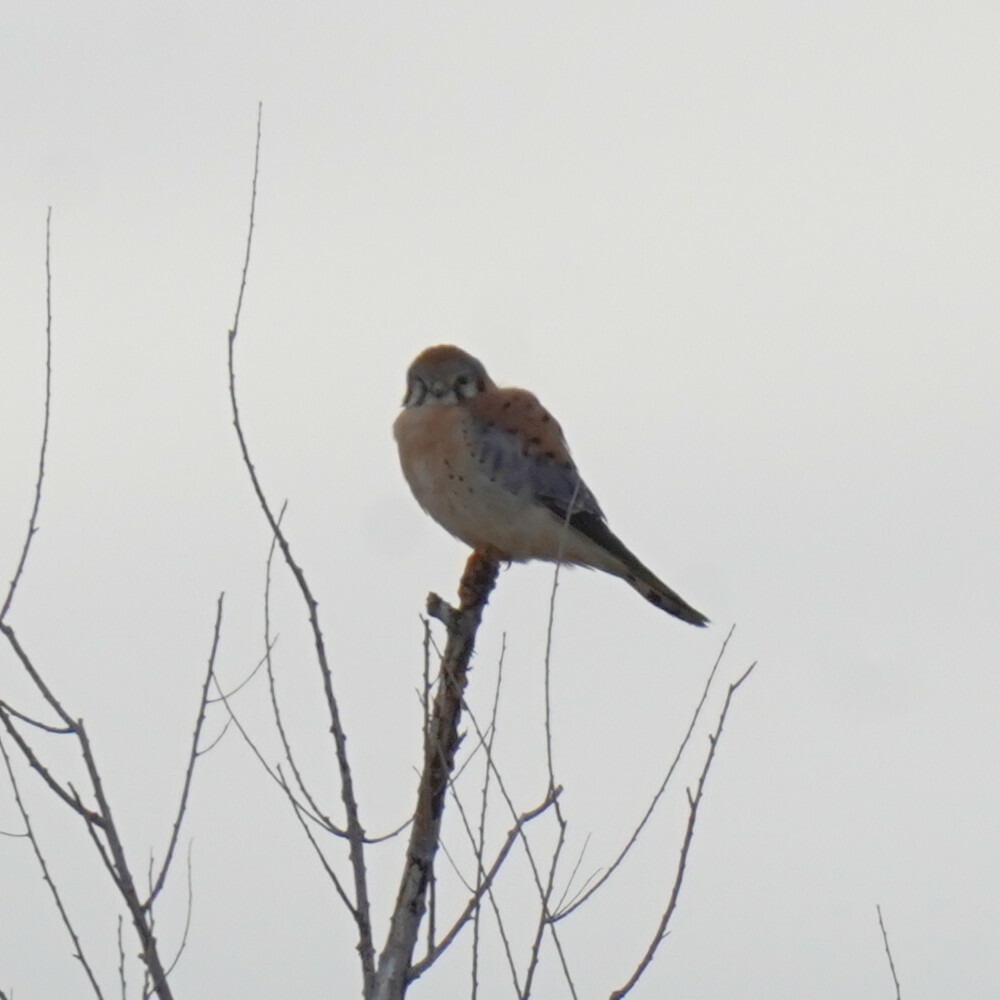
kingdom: Animalia
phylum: Chordata
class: Aves
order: Falconiformes
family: Falconidae
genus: Falco
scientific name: Falco sparverius
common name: American kestrel
